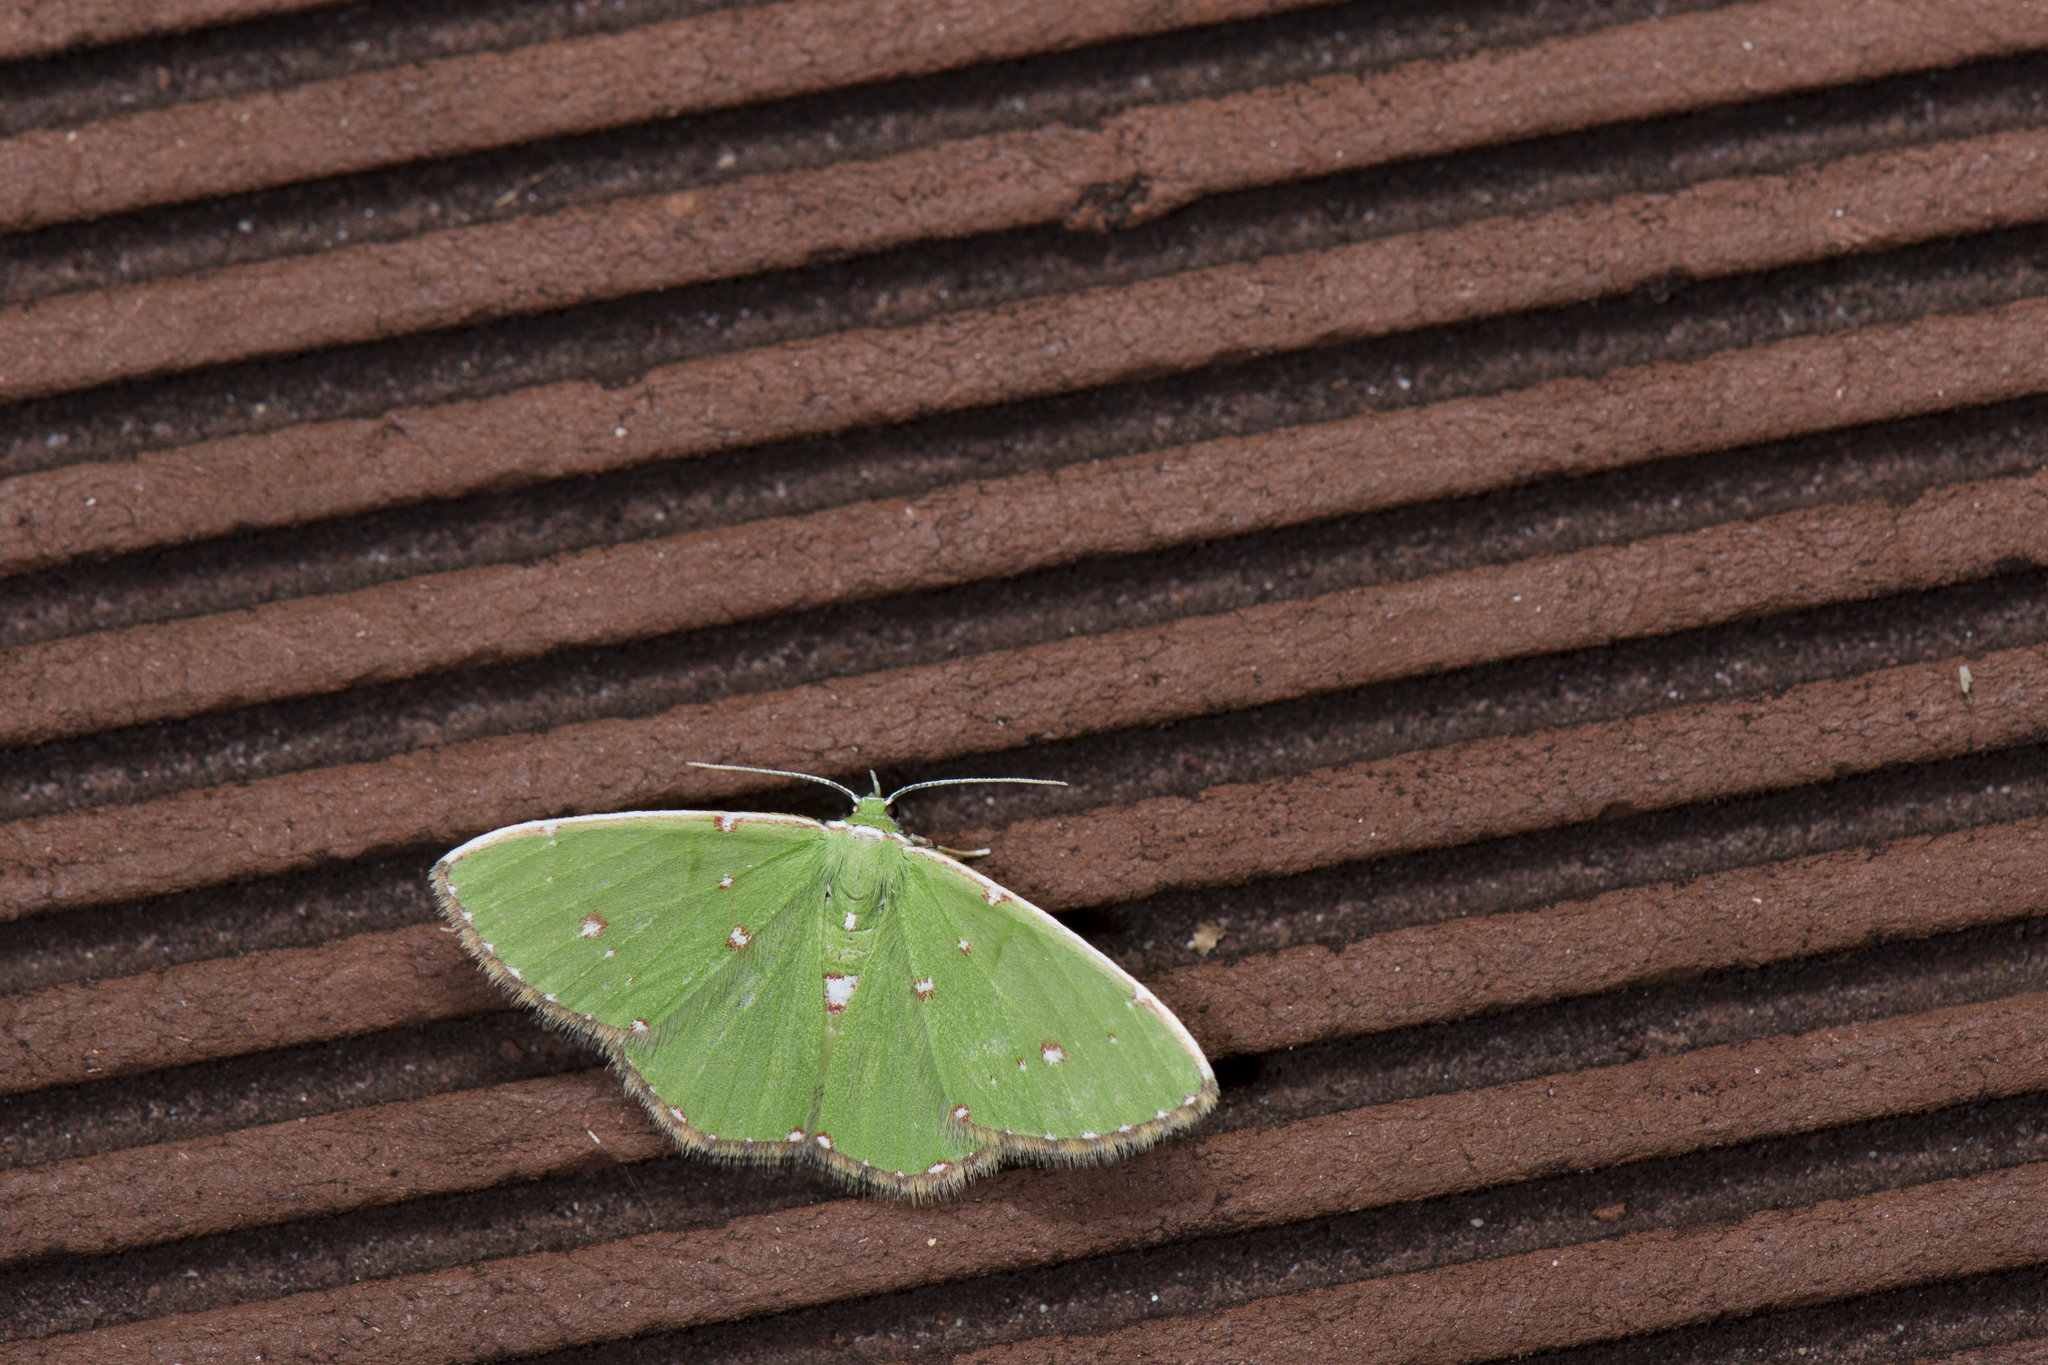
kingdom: Animalia
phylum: Arthropoda
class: Insecta
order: Lepidoptera
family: Geometridae
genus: Argyrocosma
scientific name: Argyrocosma inductaria
